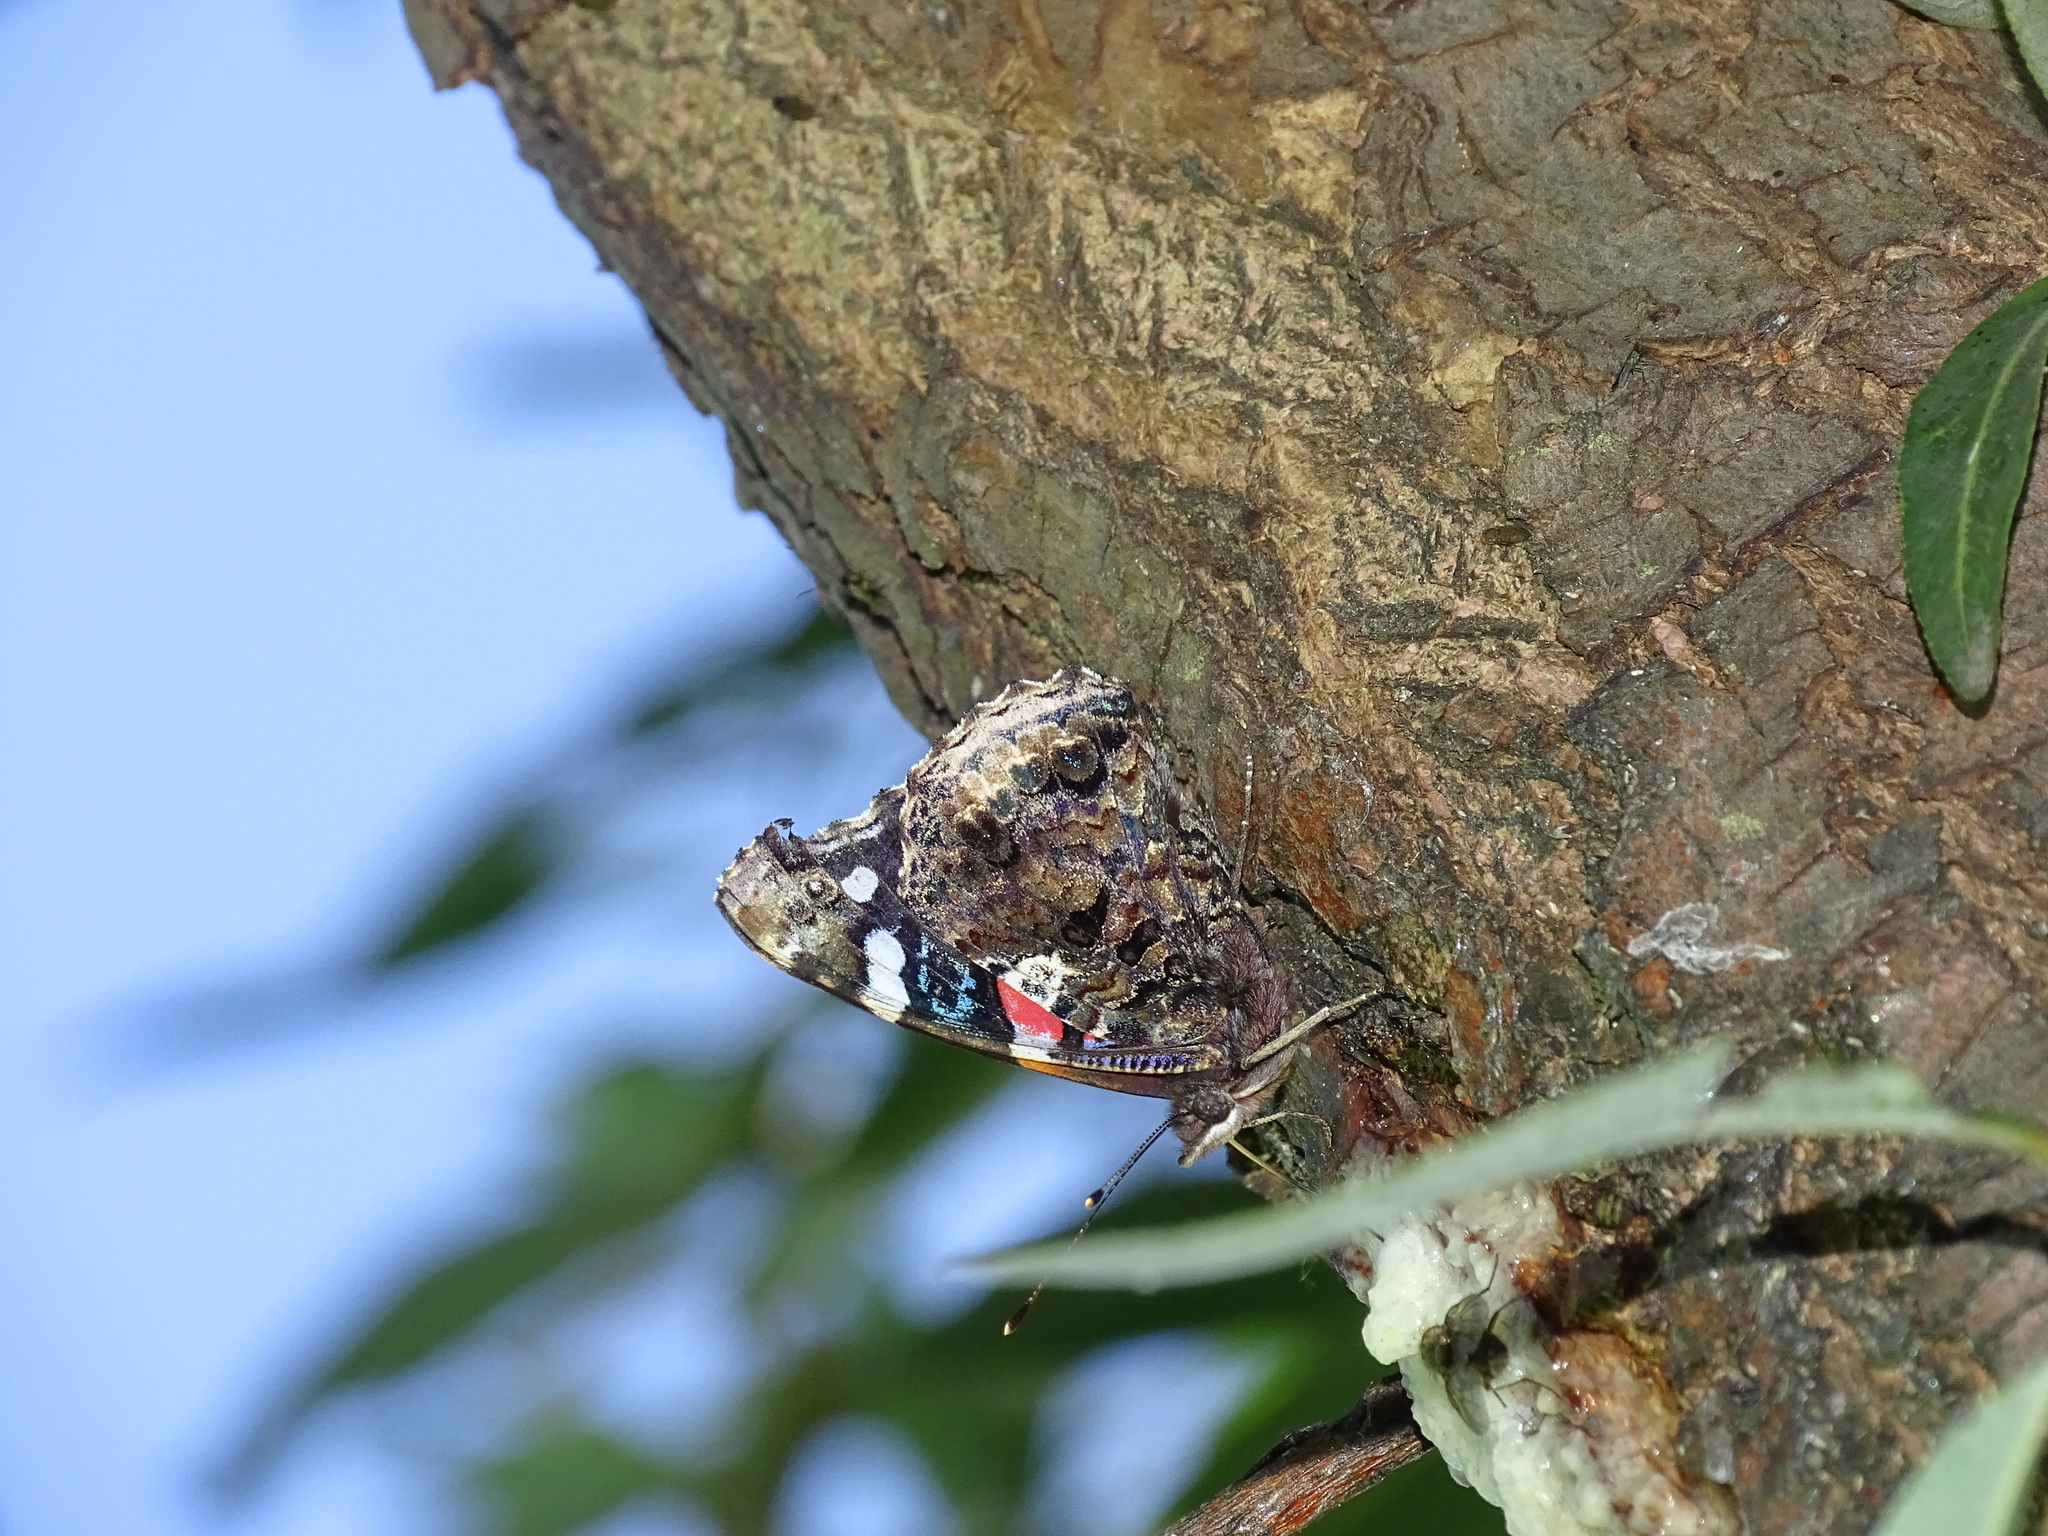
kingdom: Animalia
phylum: Arthropoda
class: Insecta
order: Lepidoptera
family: Nymphalidae
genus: Vanessa
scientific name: Vanessa atalanta
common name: Red admiral
